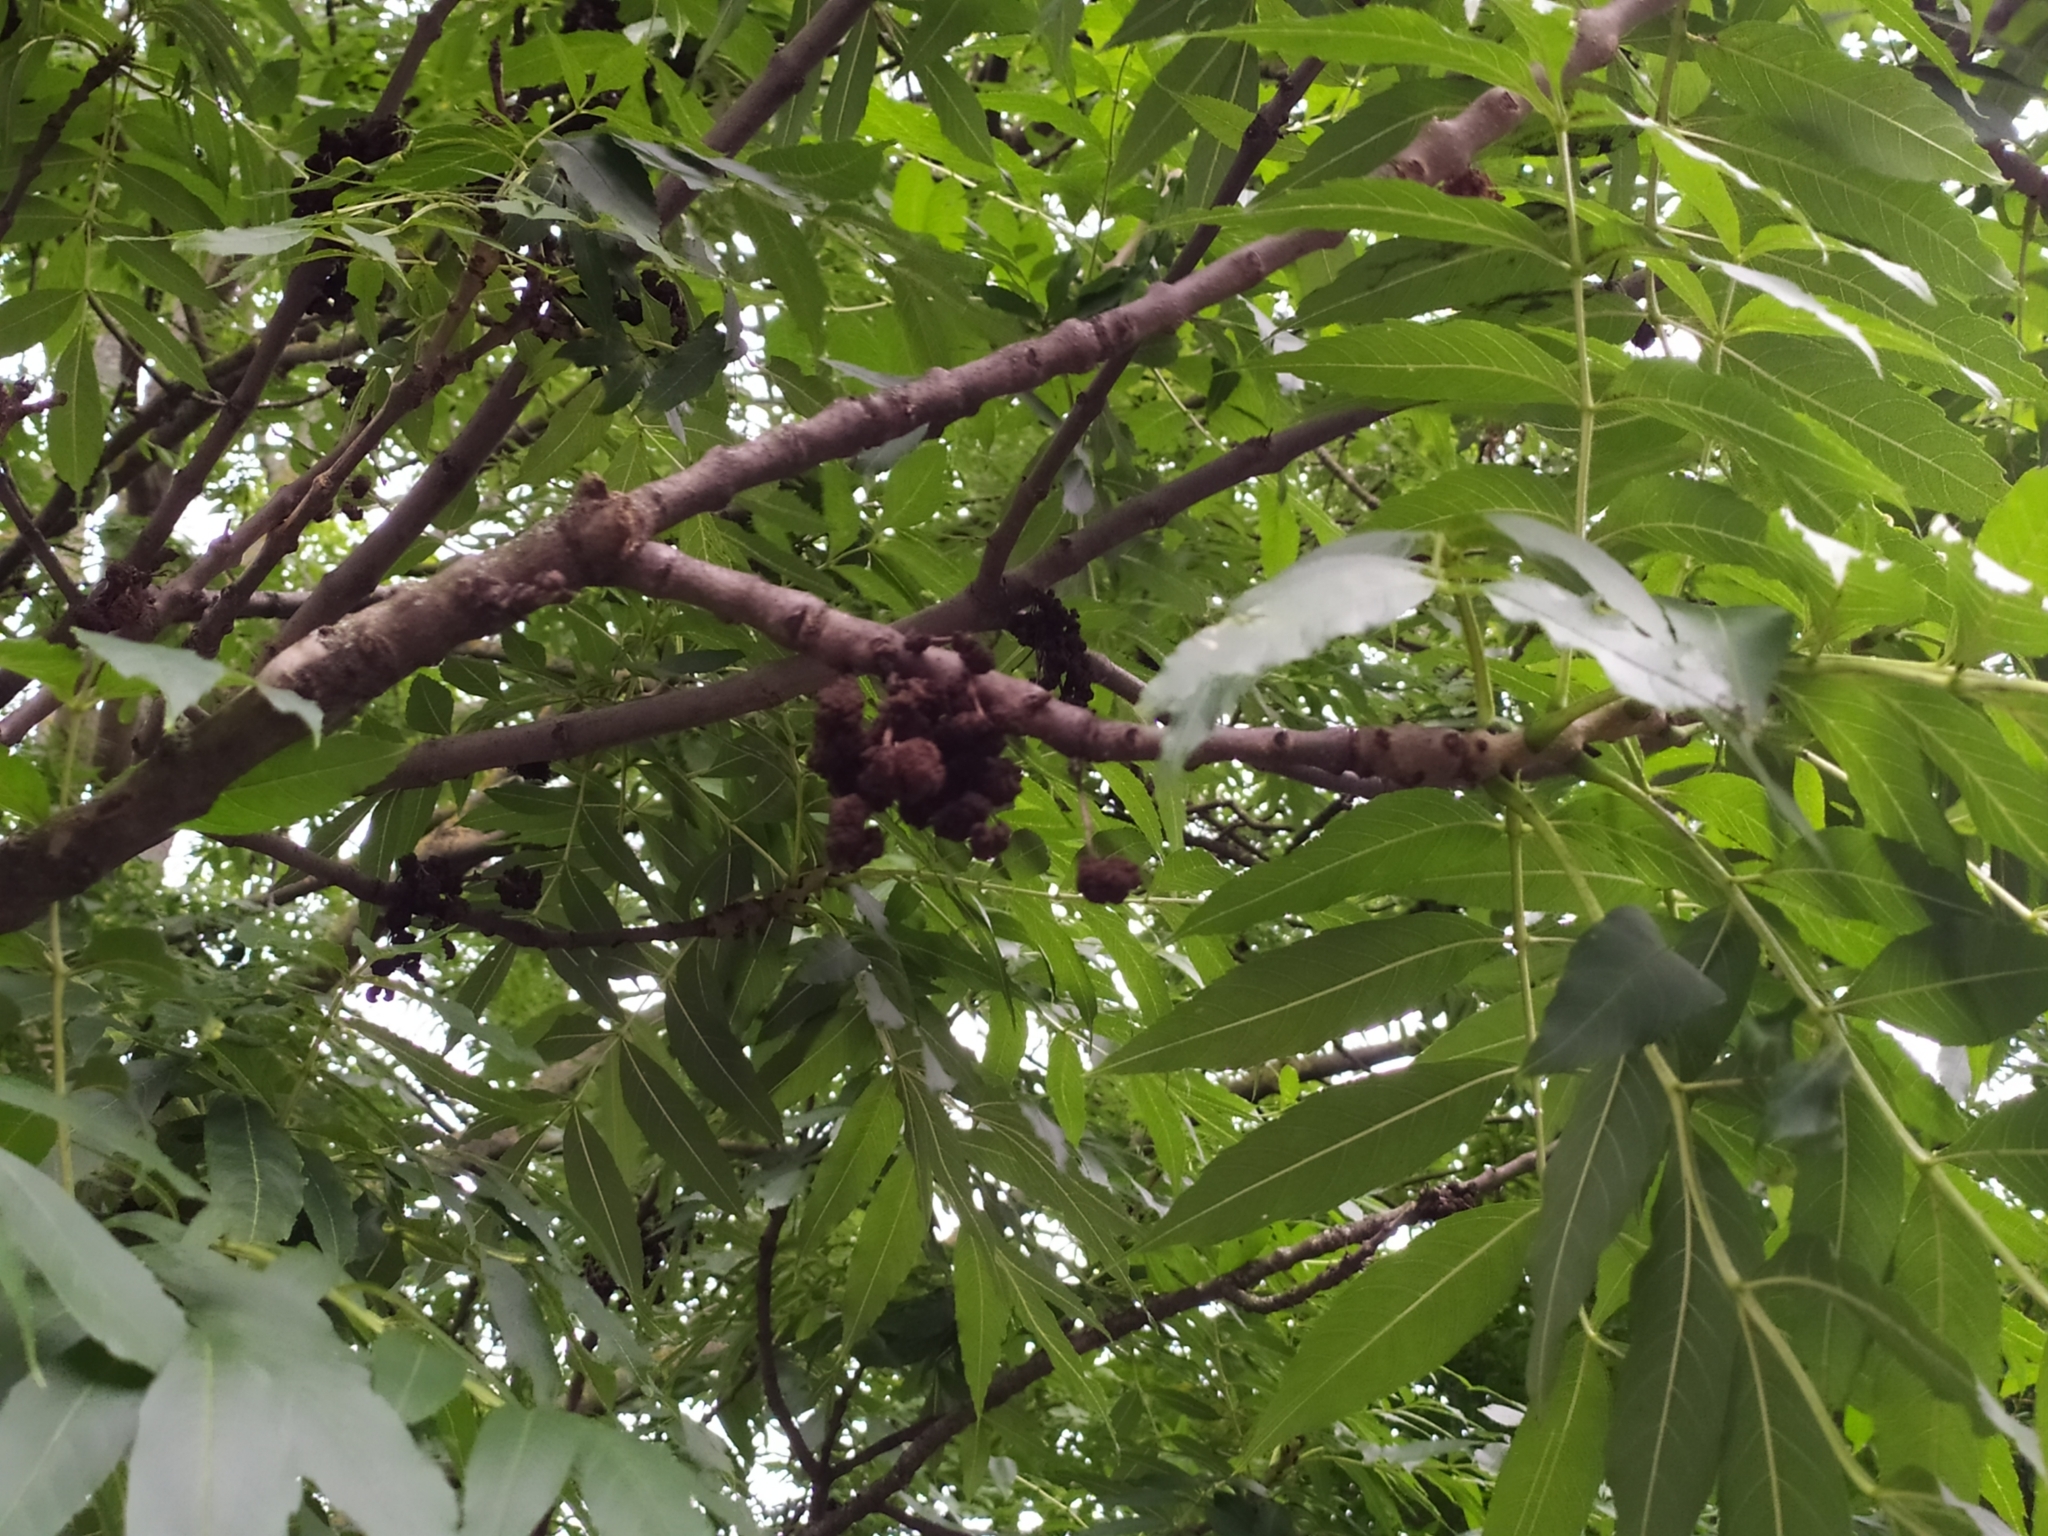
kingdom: Animalia
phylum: Arthropoda
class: Arachnida
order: Trombidiformes
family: Eriophyidae
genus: Aceria
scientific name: Aceria fraxinivora
